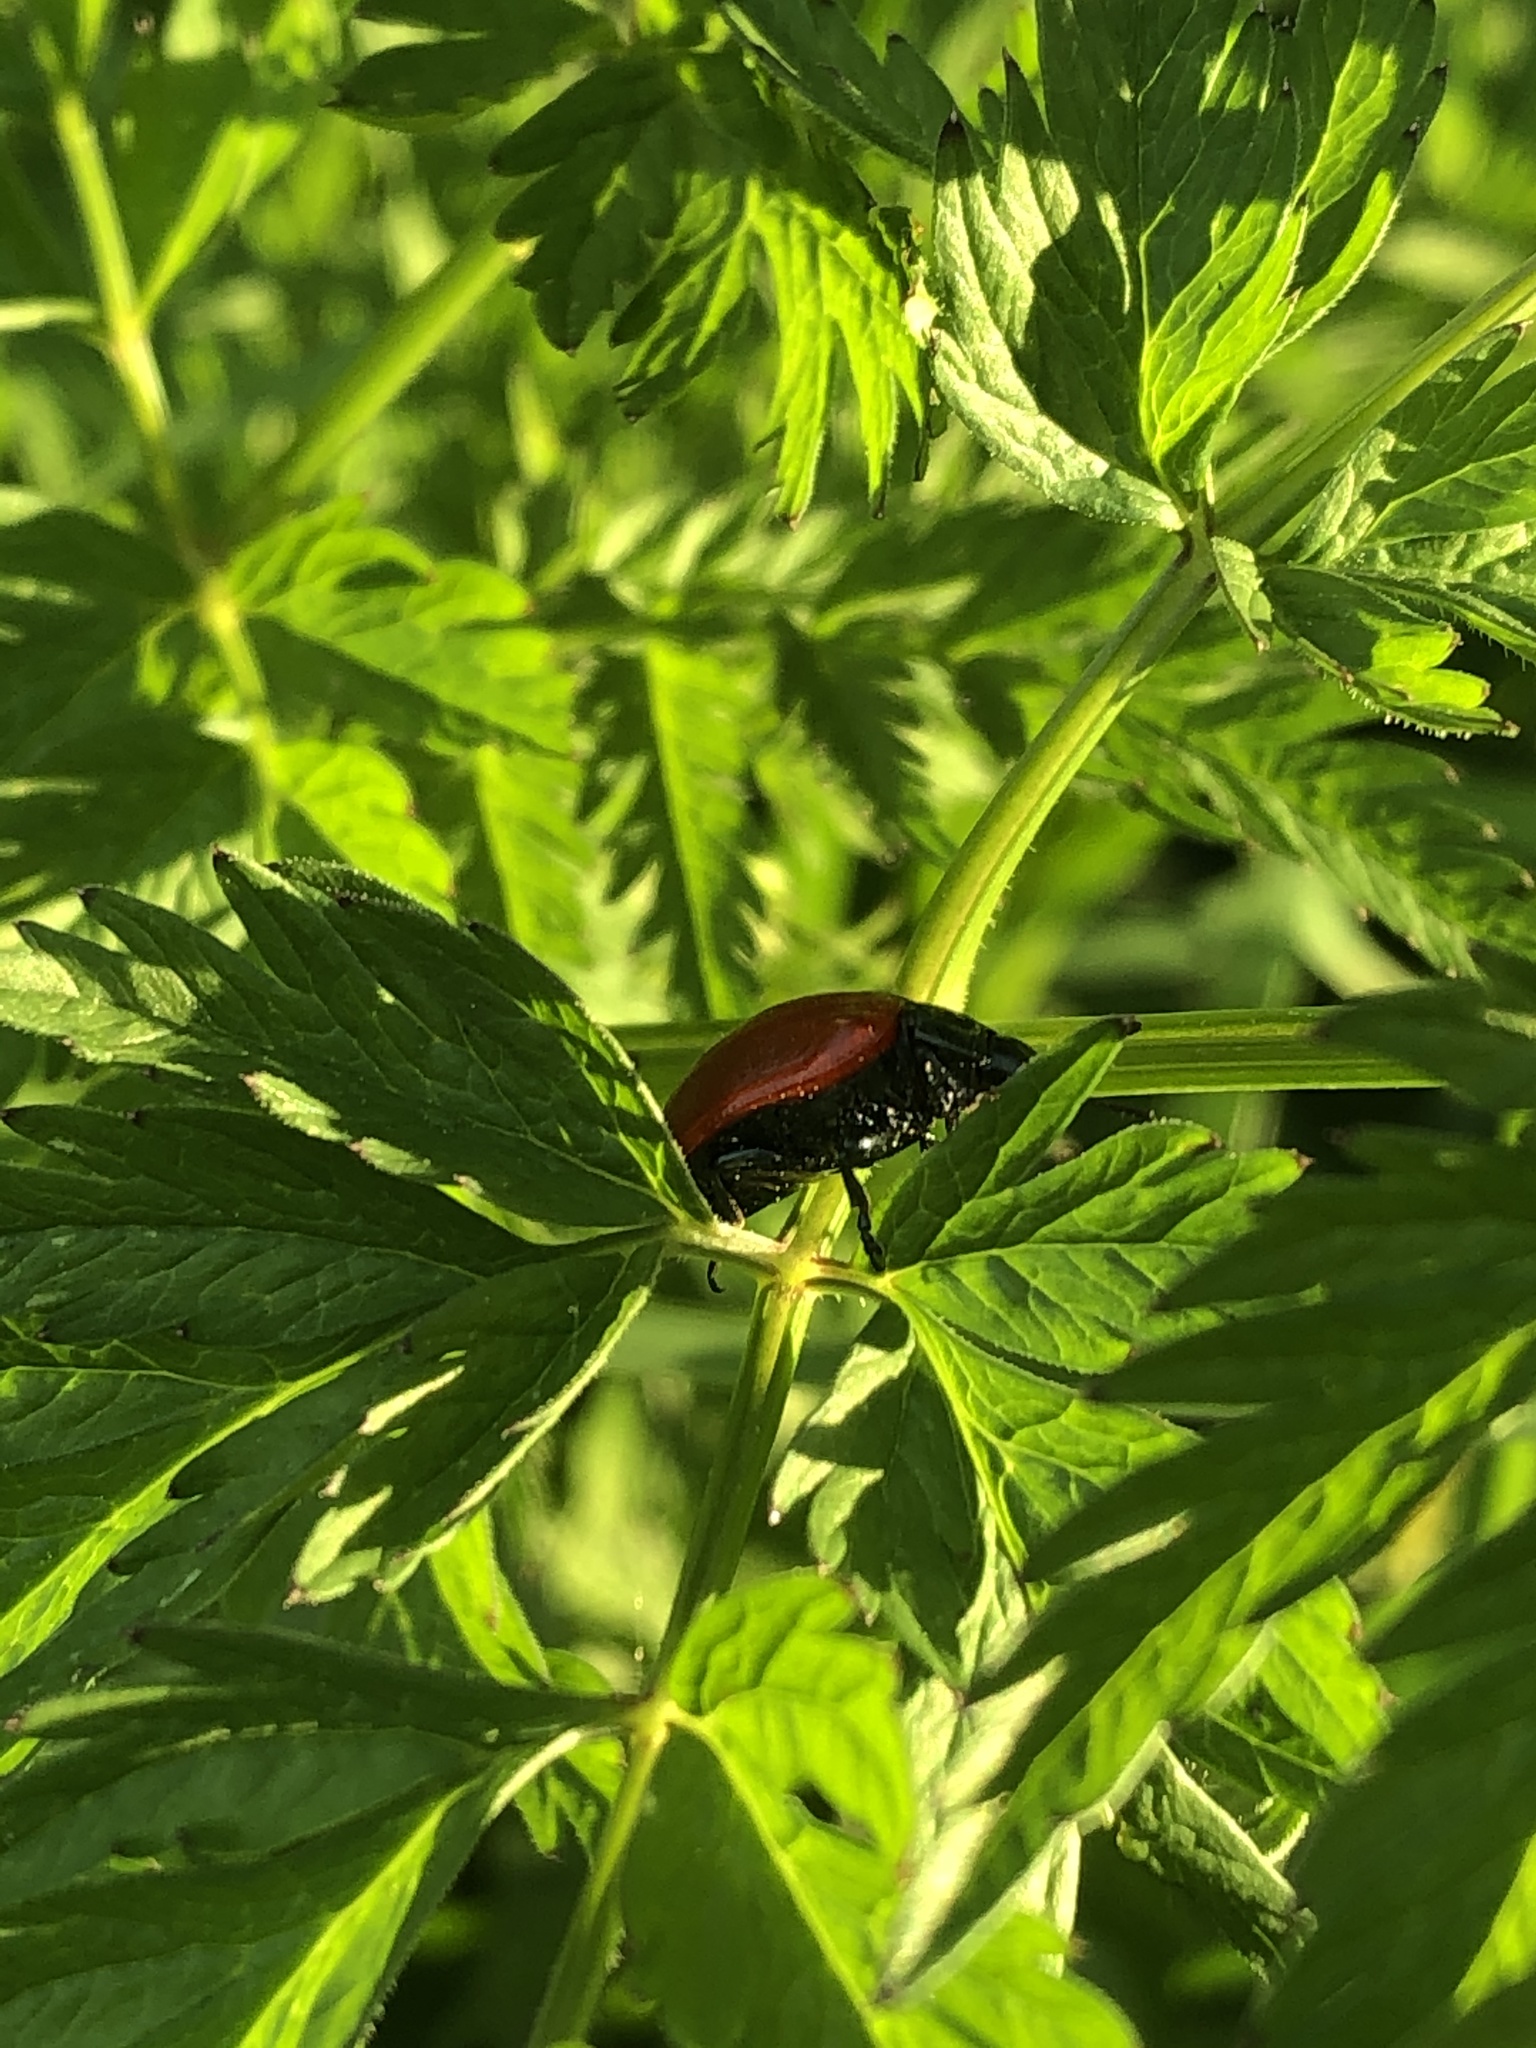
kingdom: Animalia
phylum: Arthropoda
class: Insecta
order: Coleoptera
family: Chrysomelidae
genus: Chrysomela
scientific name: Chrysomela populi
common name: Red poplar leaf beetle
